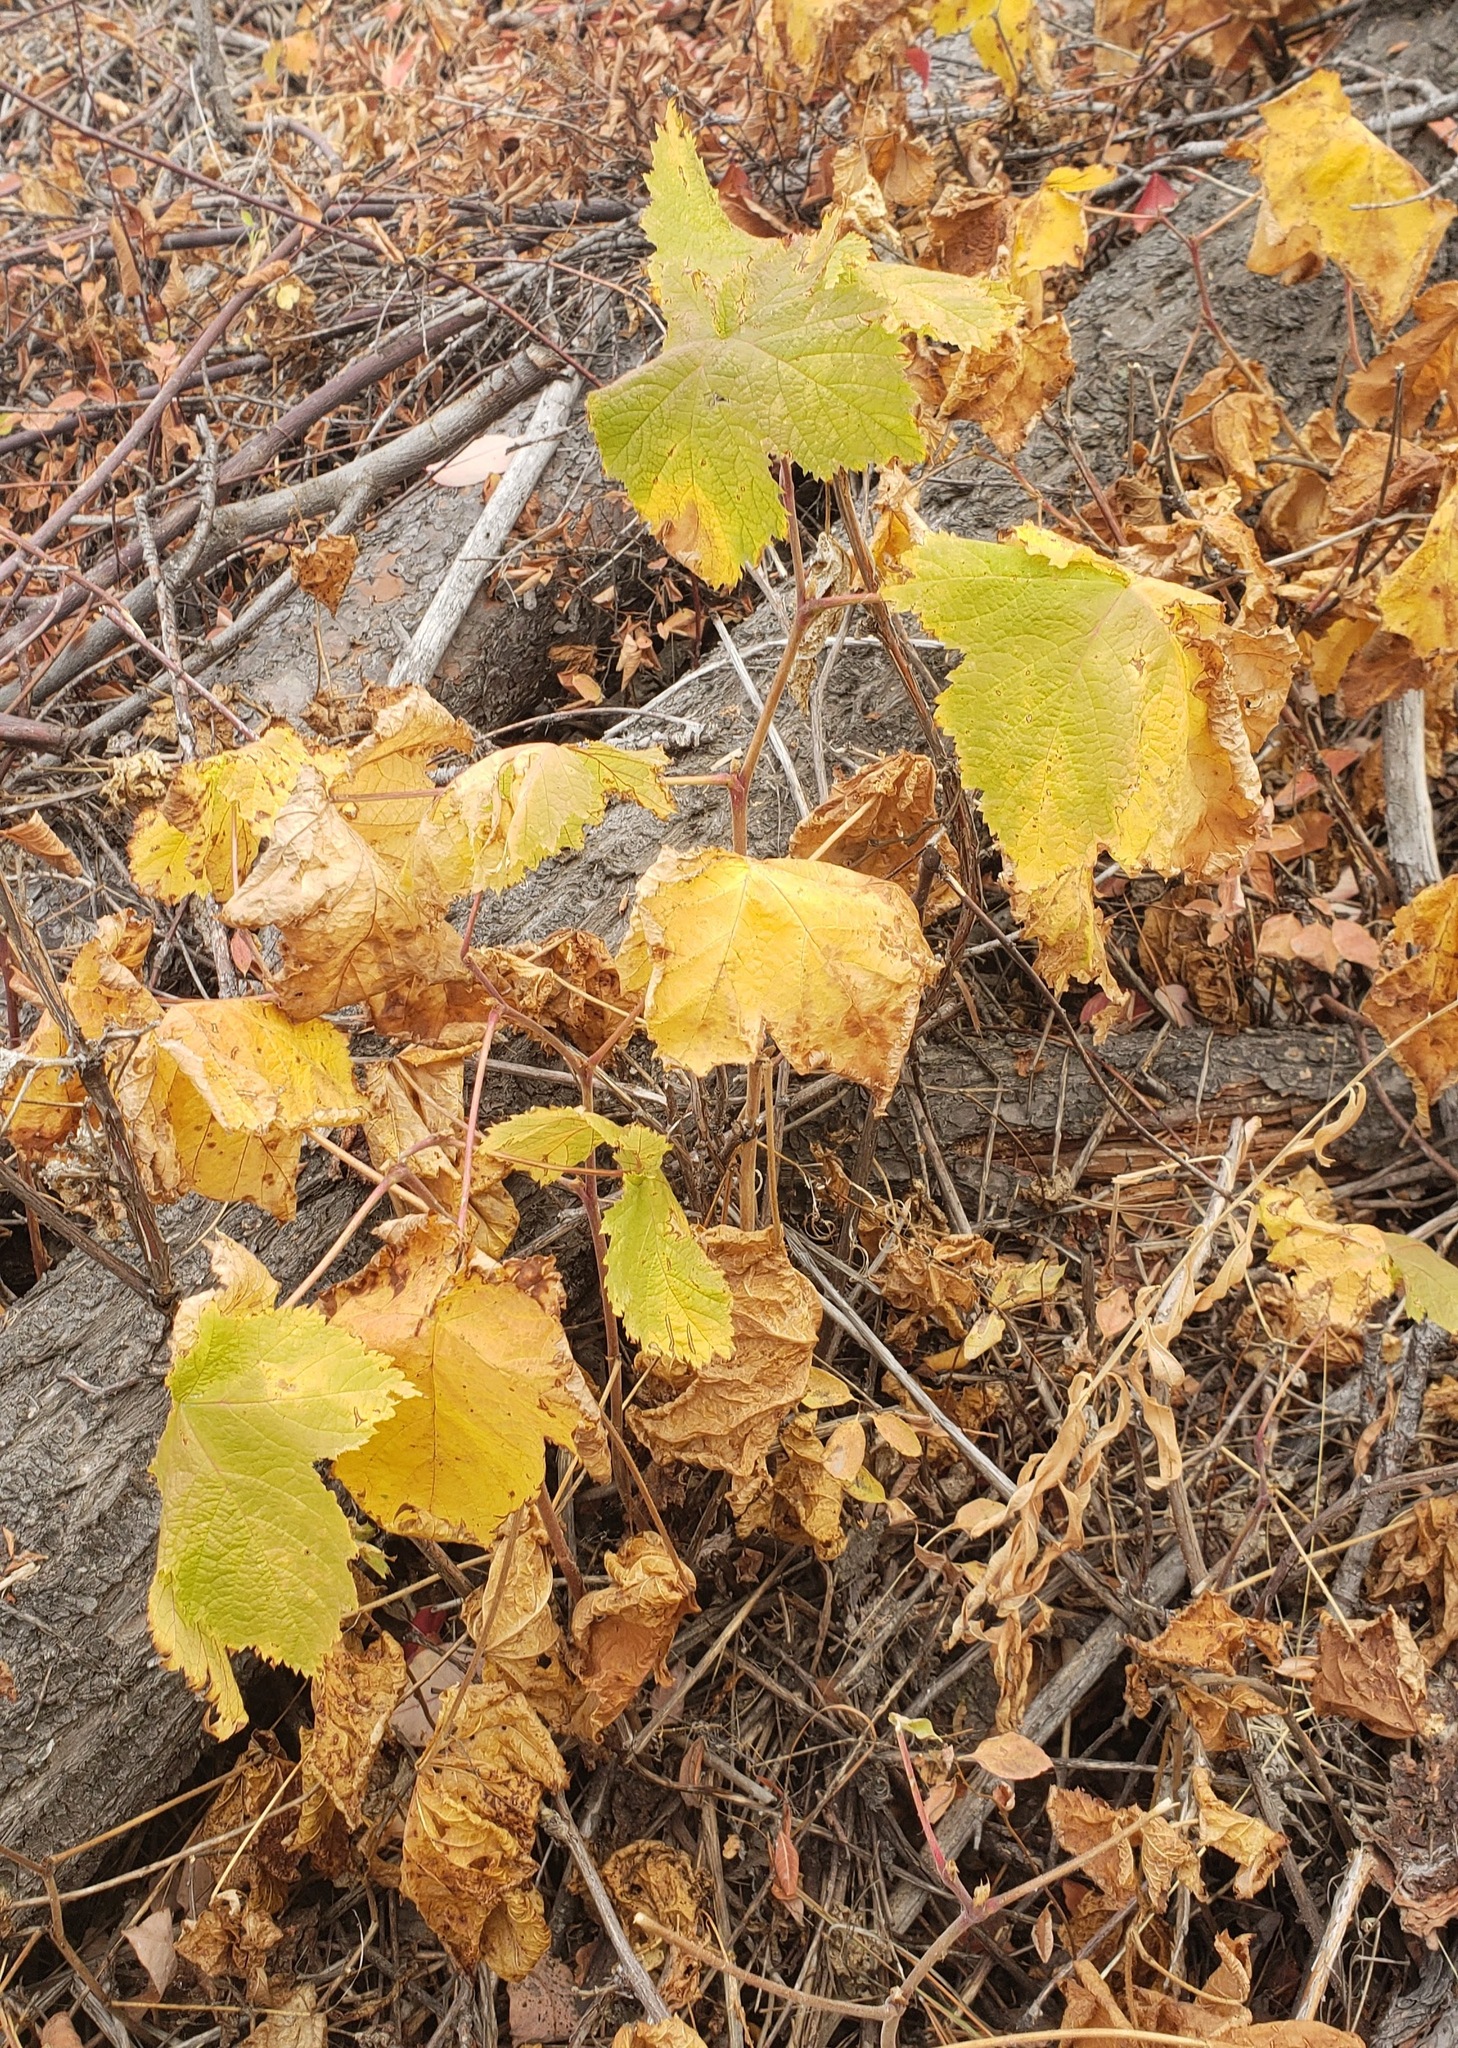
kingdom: Plantae
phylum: Tracheophyta
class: Magnoliopsida
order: Rosales
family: Rosaceae
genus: Rubus
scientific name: Rubus parviflorus
